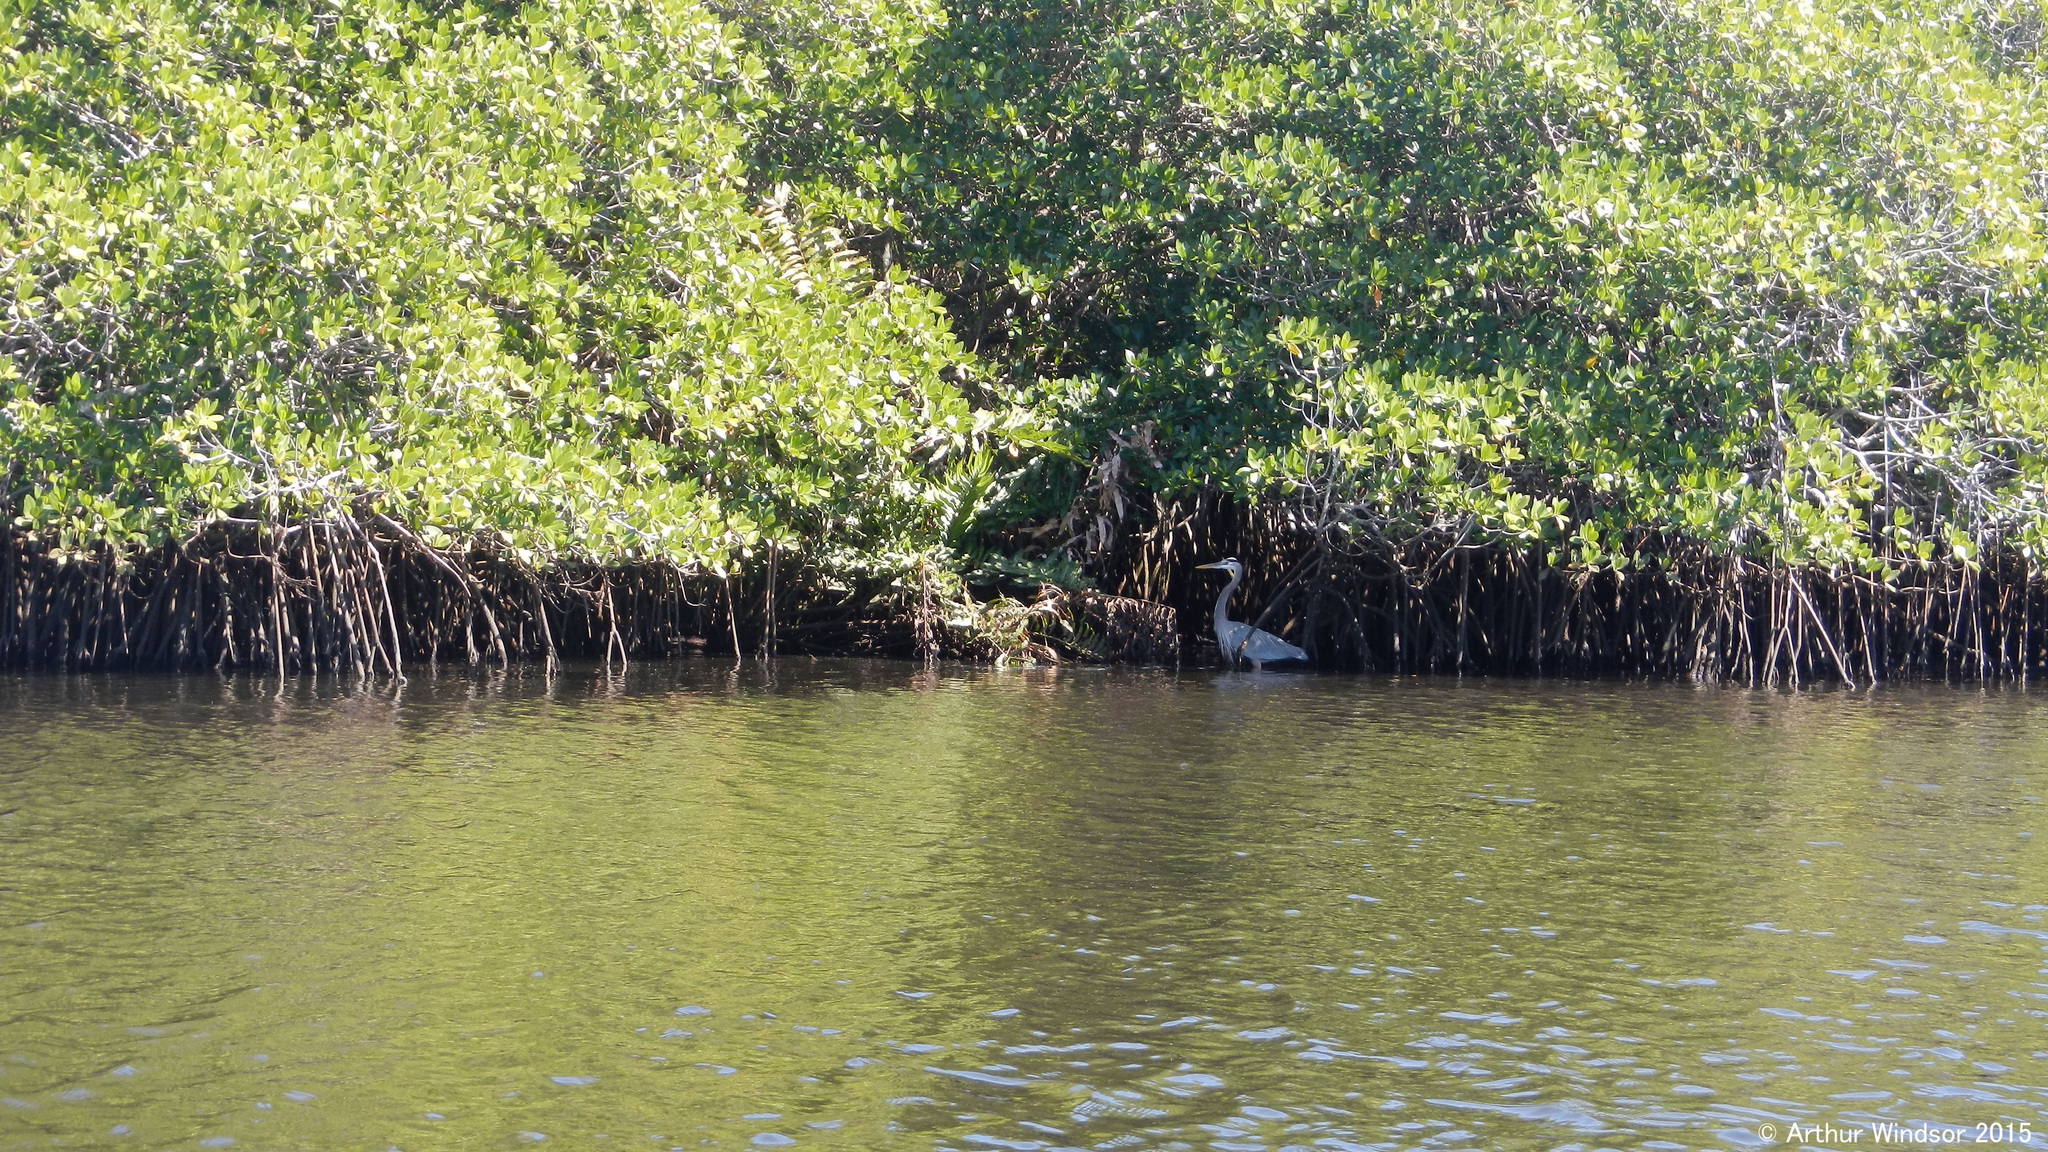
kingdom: Animalia
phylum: Chordata
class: Aves
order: Pelecaniformes
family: Ardeidae
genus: Ardea
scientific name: Ardea herodias
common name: Great blue heron
